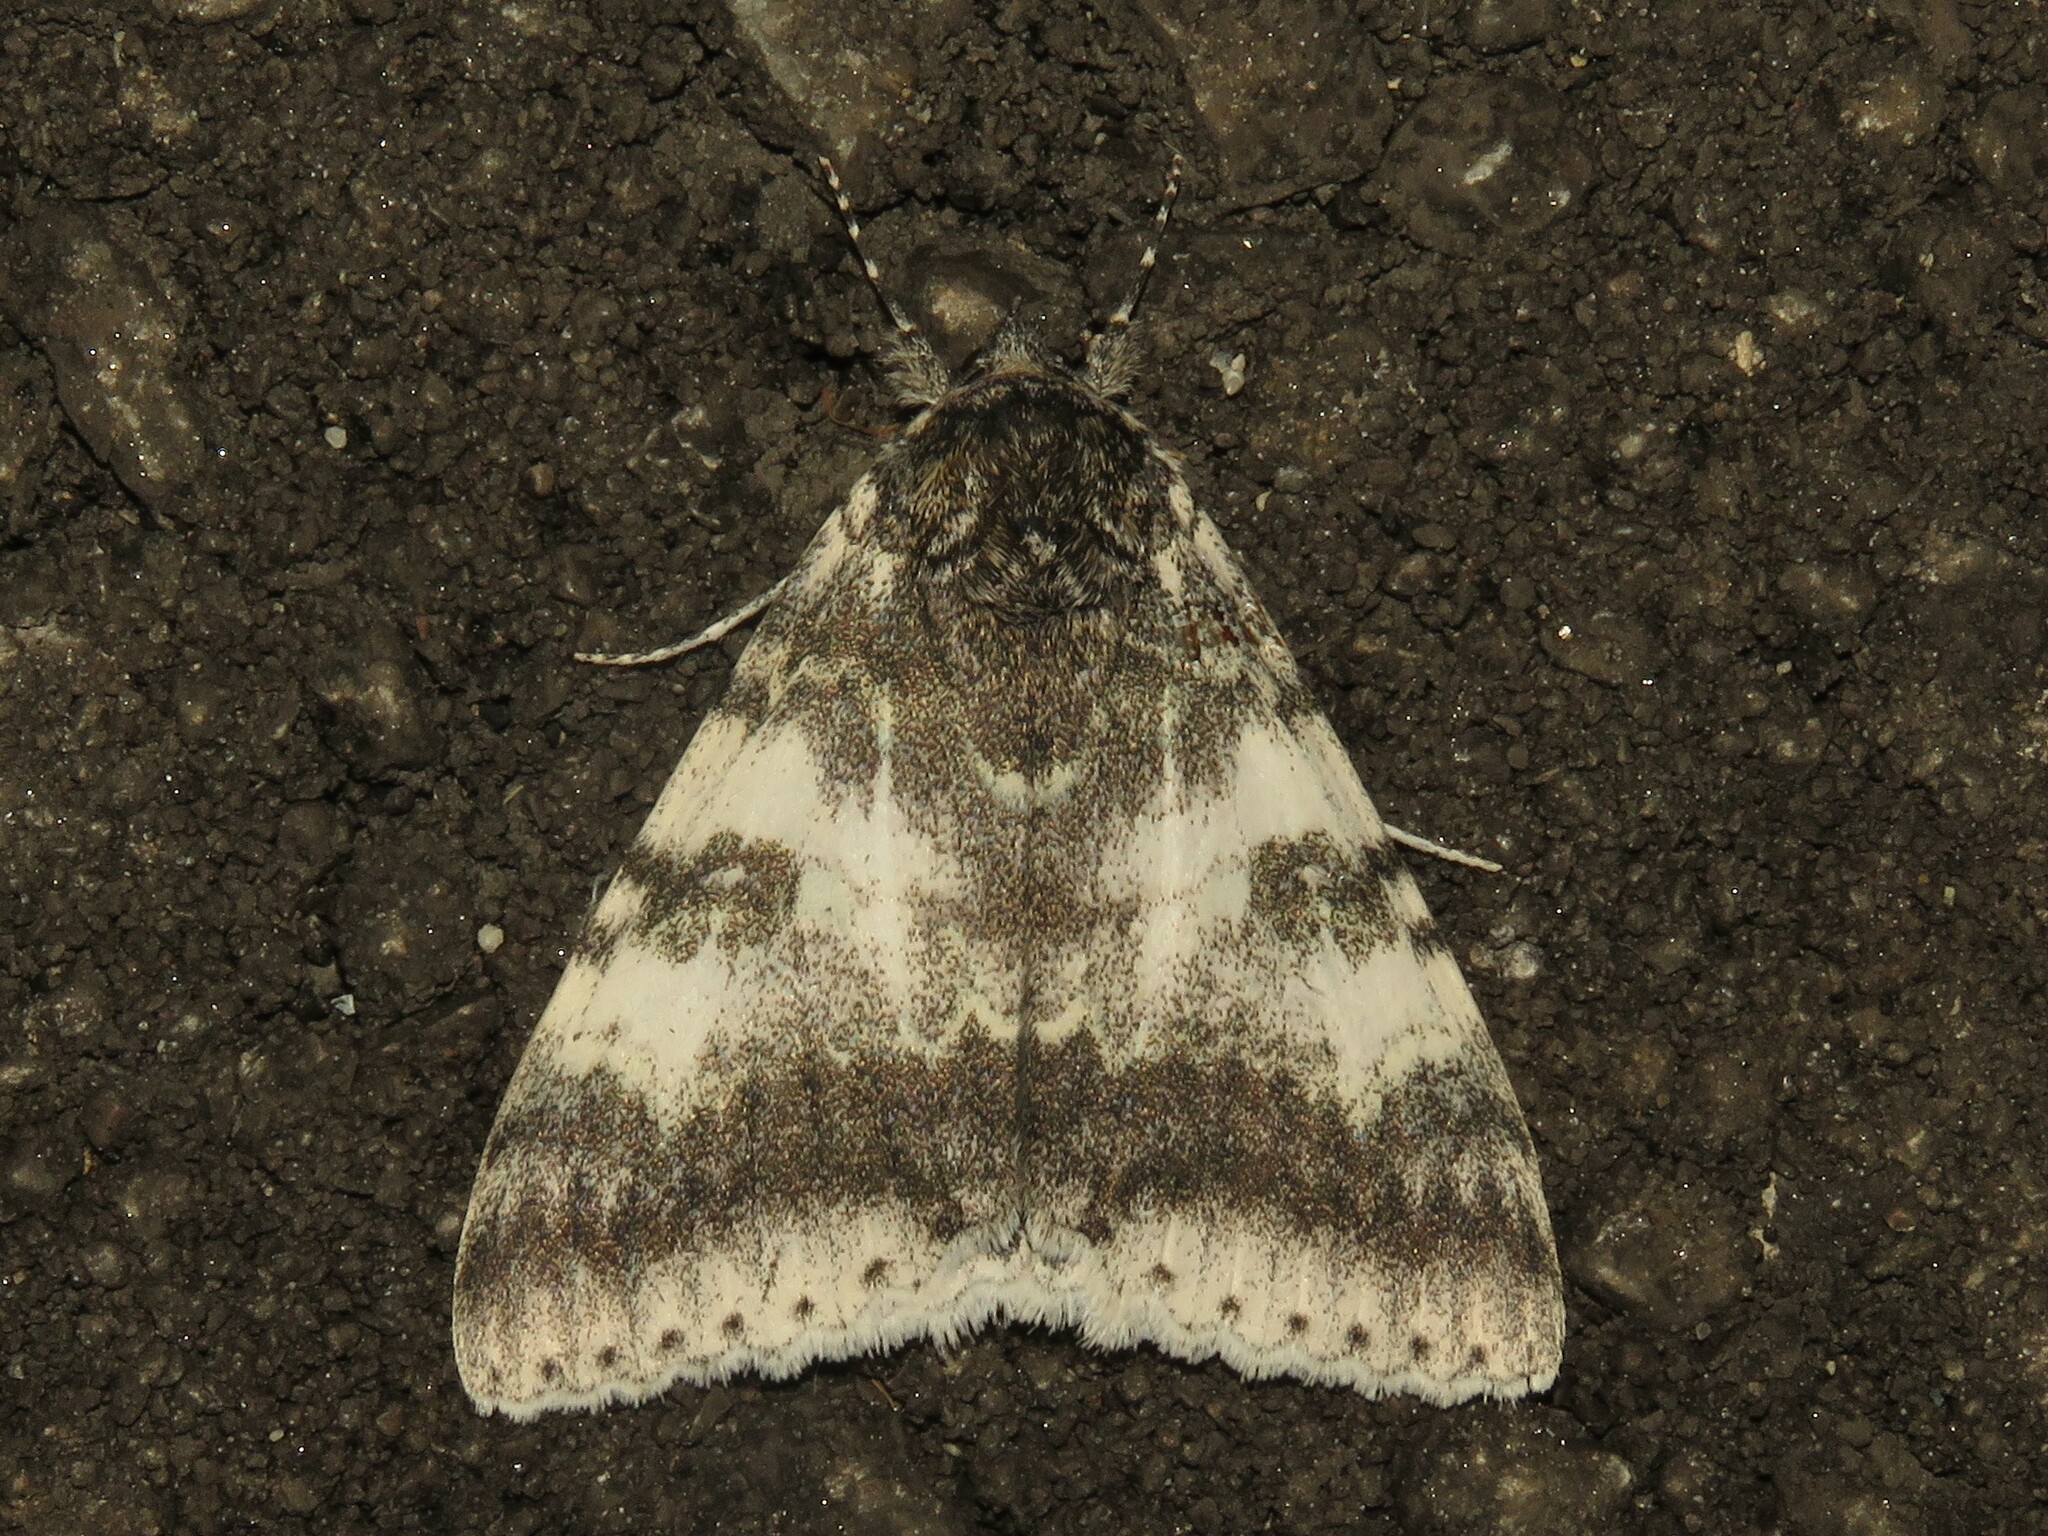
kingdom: Animalia
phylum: Arthropoda
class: Insecta
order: Lepidoptera
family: Erebidae
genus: Catocala
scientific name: Catocala relicta
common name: White underwing
